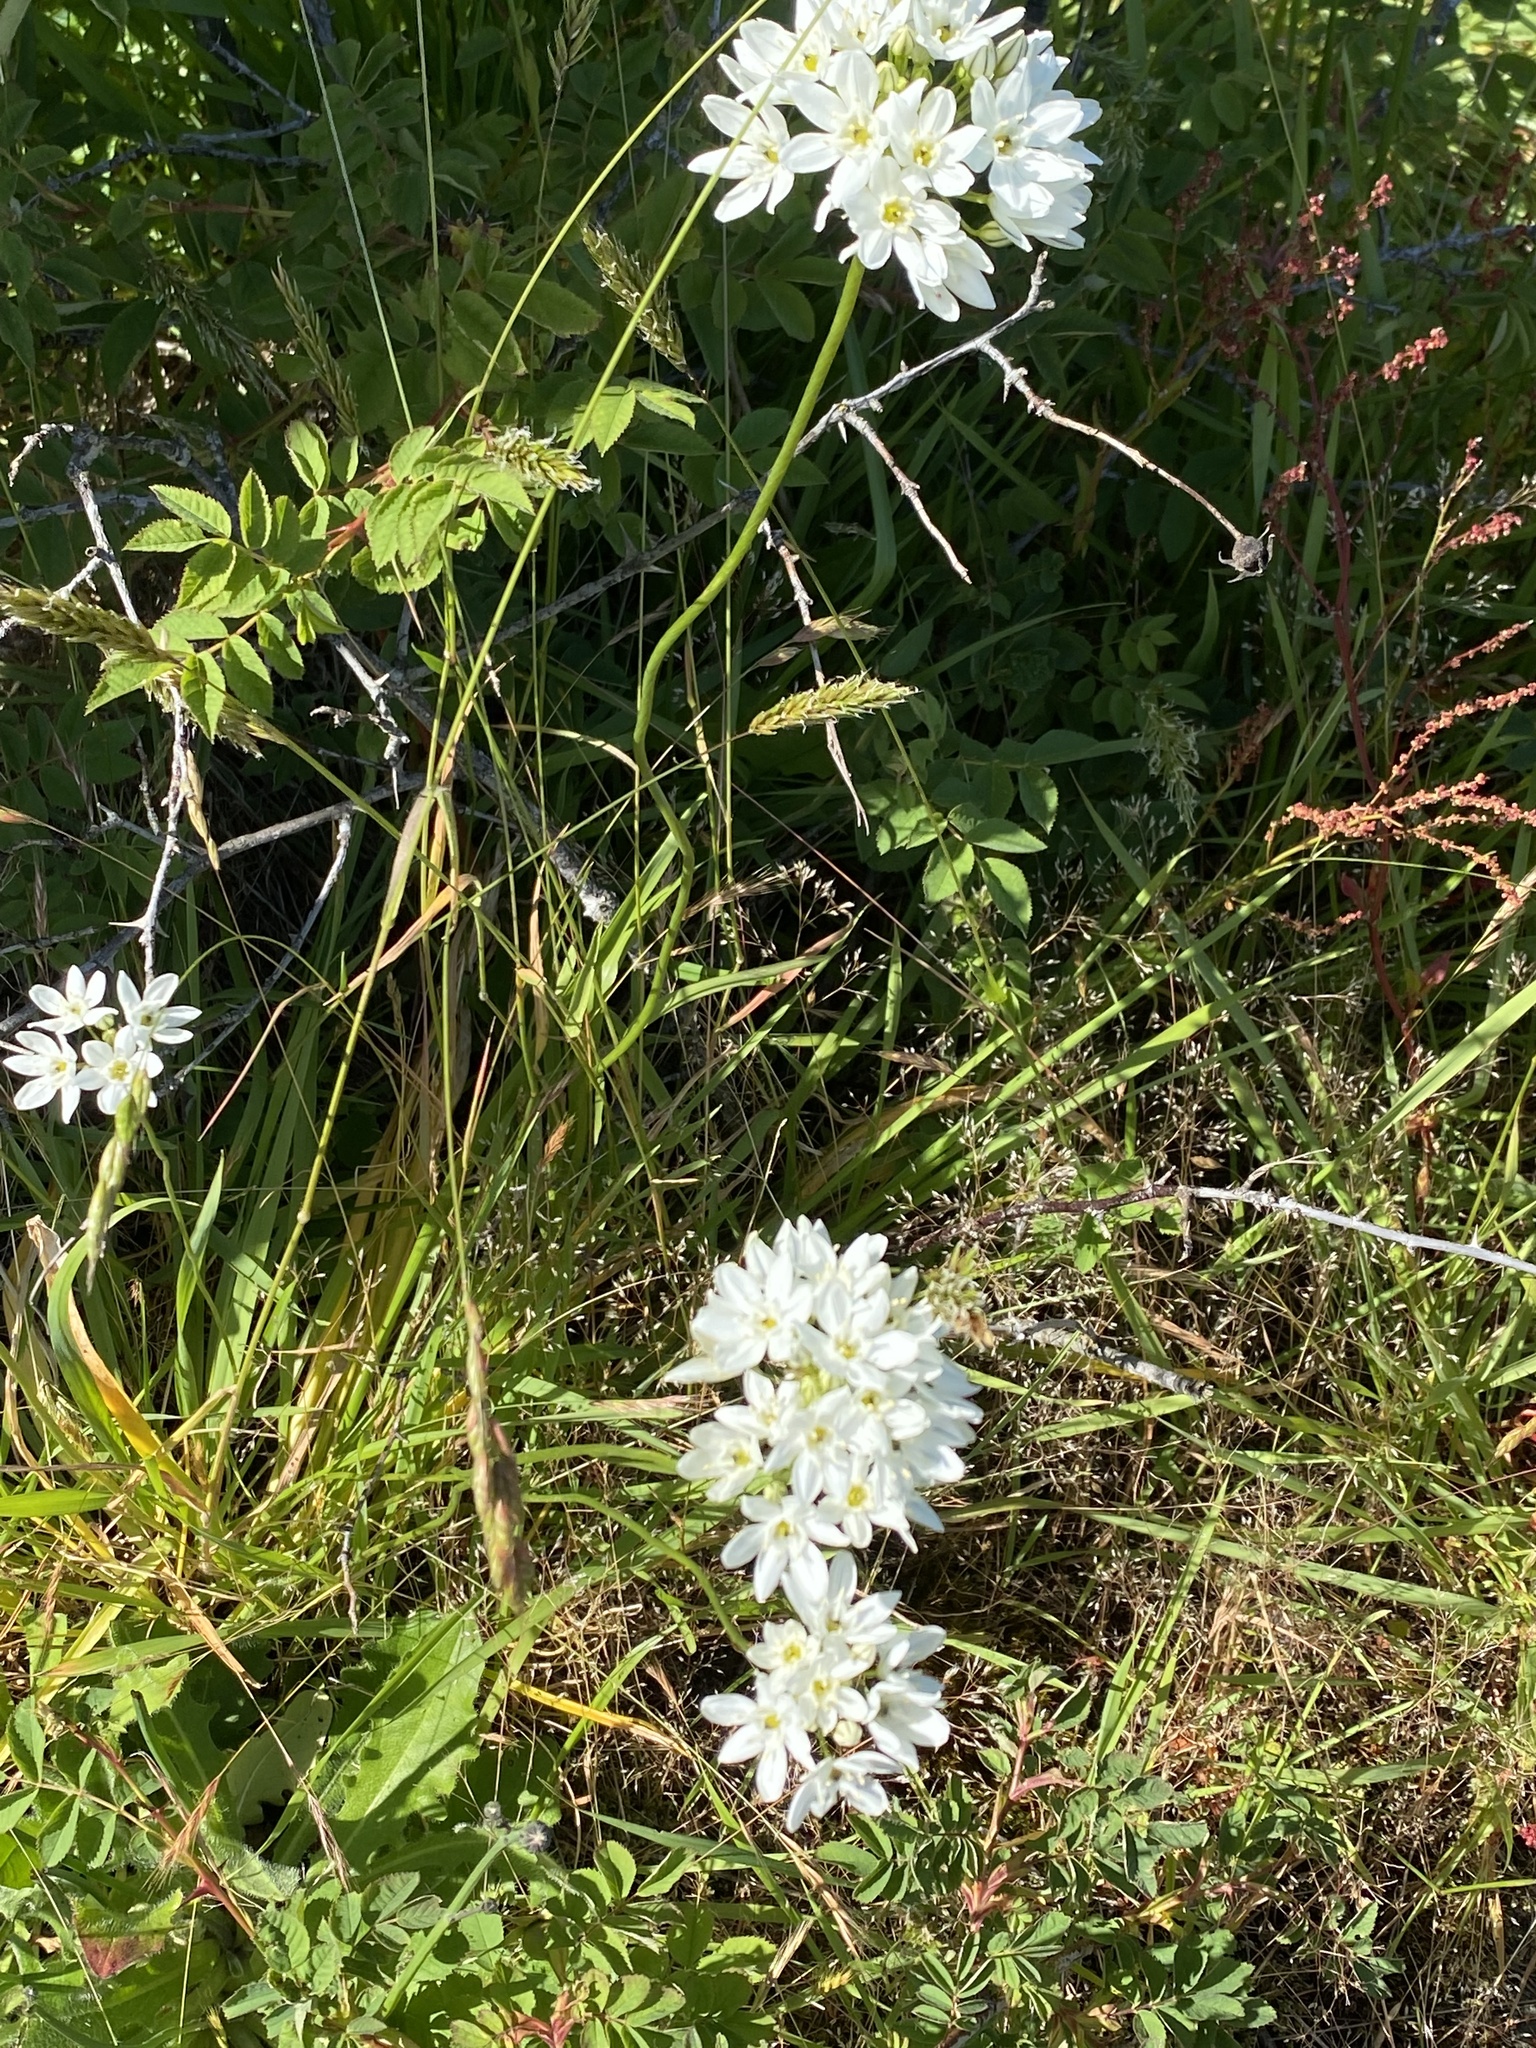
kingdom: Plantae
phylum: Tracheophyta
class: Liliopsida
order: Asparagales
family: Asparagaceae
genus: Triteleia
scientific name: Triteleia hyacinthina
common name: White brodiaea
